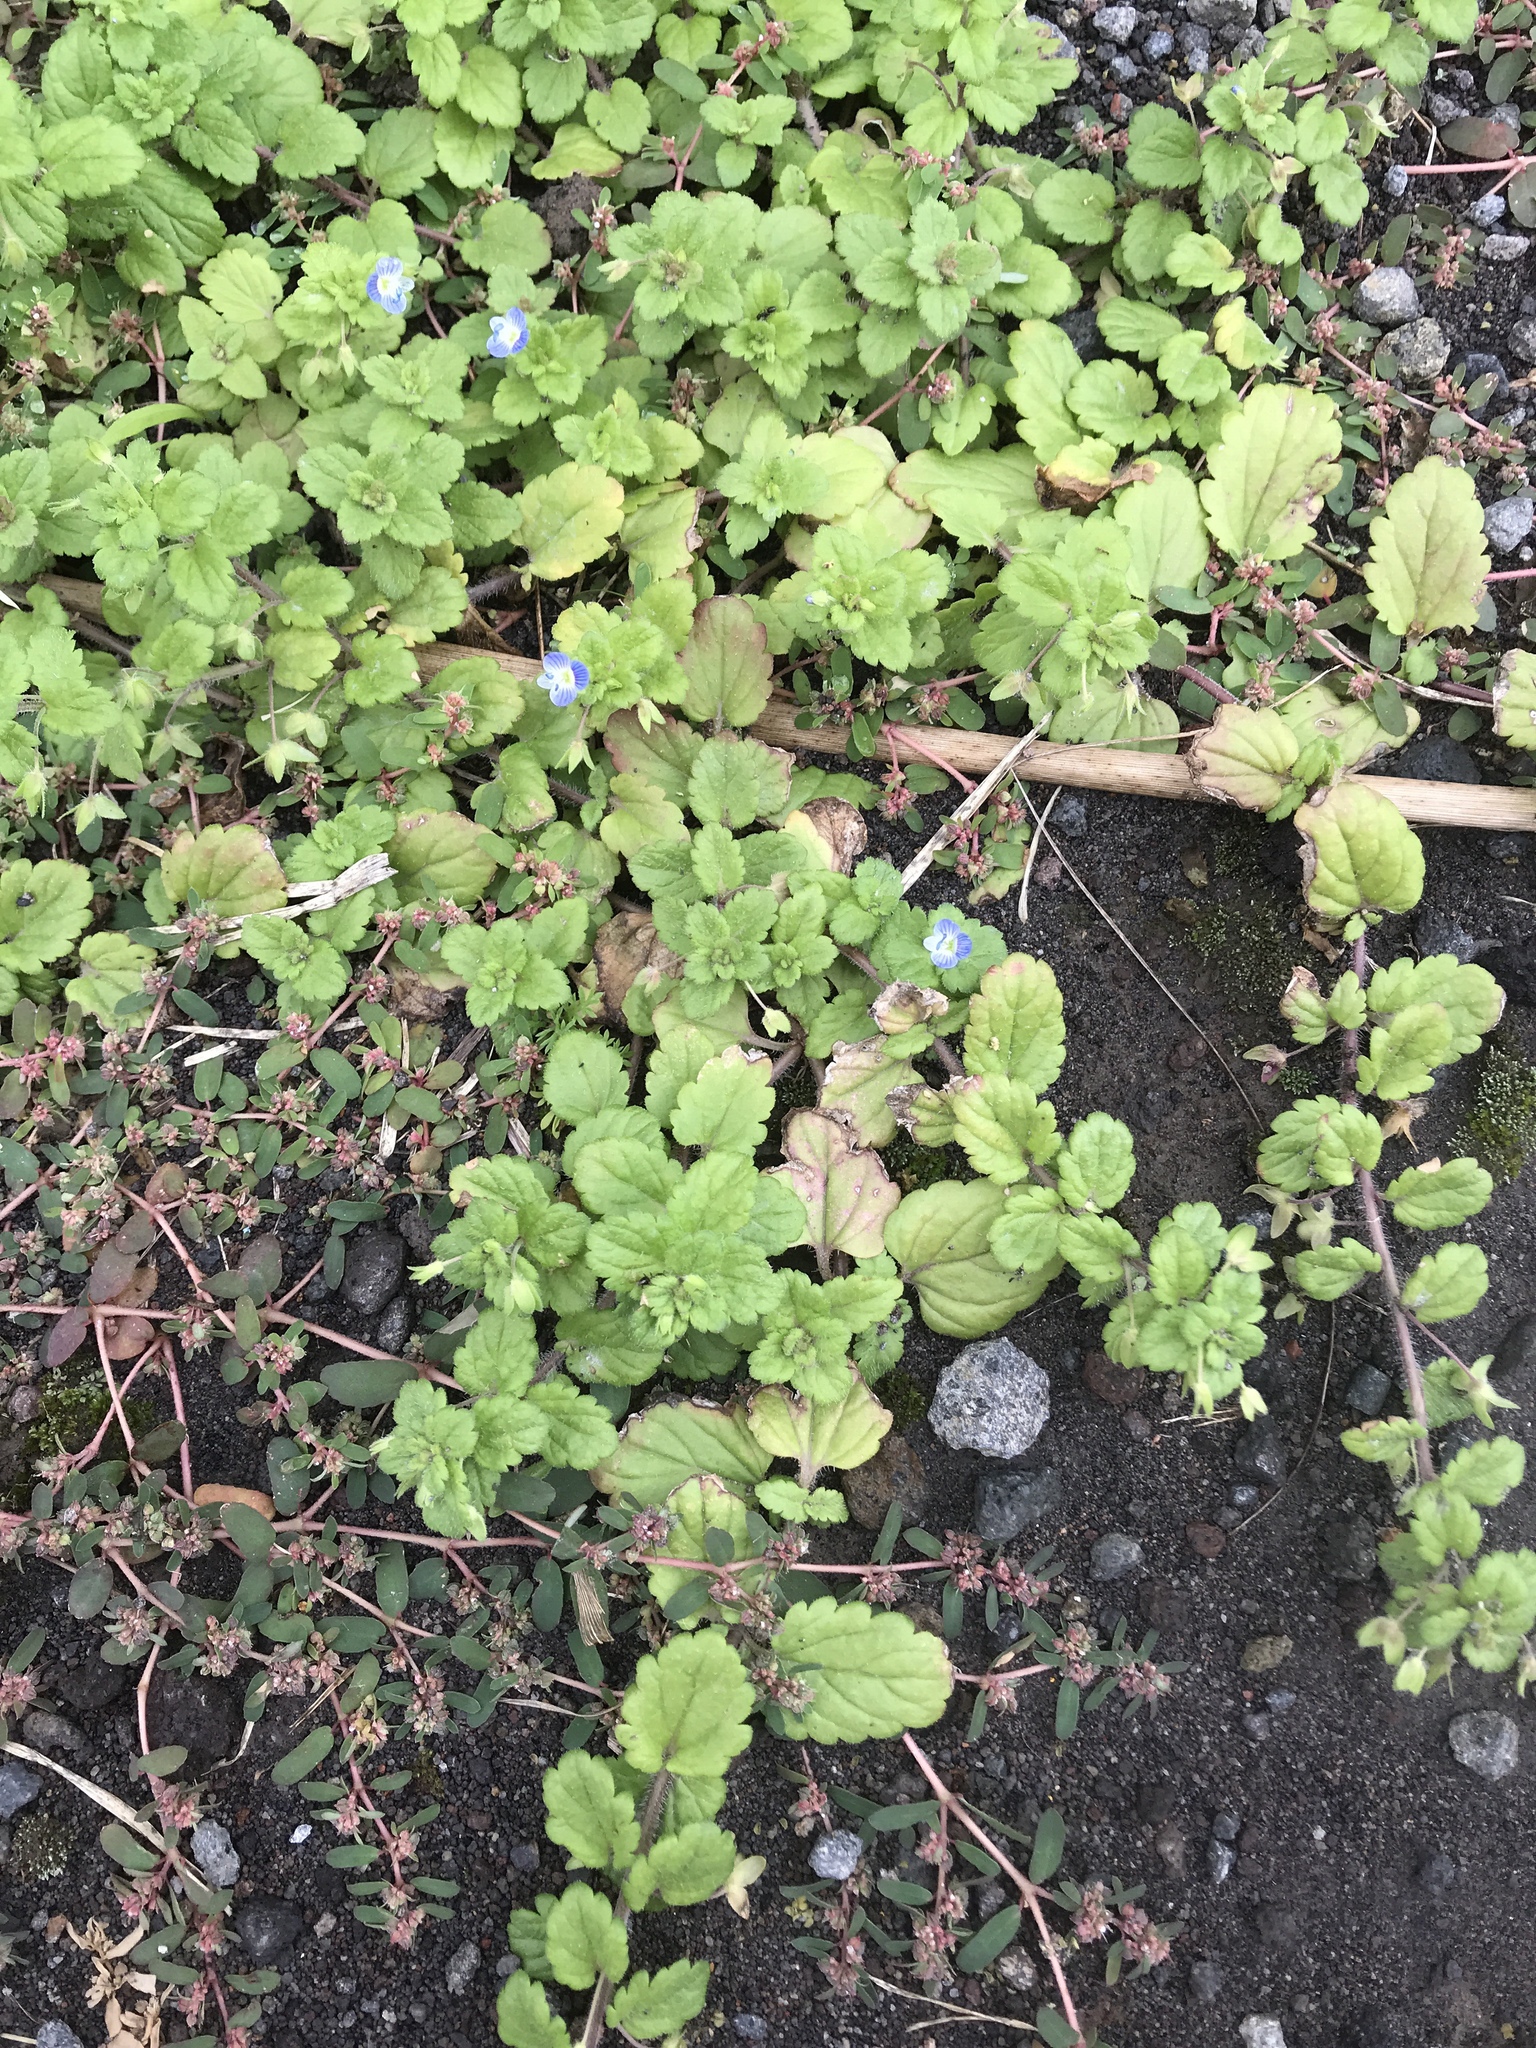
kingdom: Plantae
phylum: Tracheophyta
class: Magnoliopsida
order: Lamiales
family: Plantaginaceae
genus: Veronica
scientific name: Veronica persica
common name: Common field-speedwell
